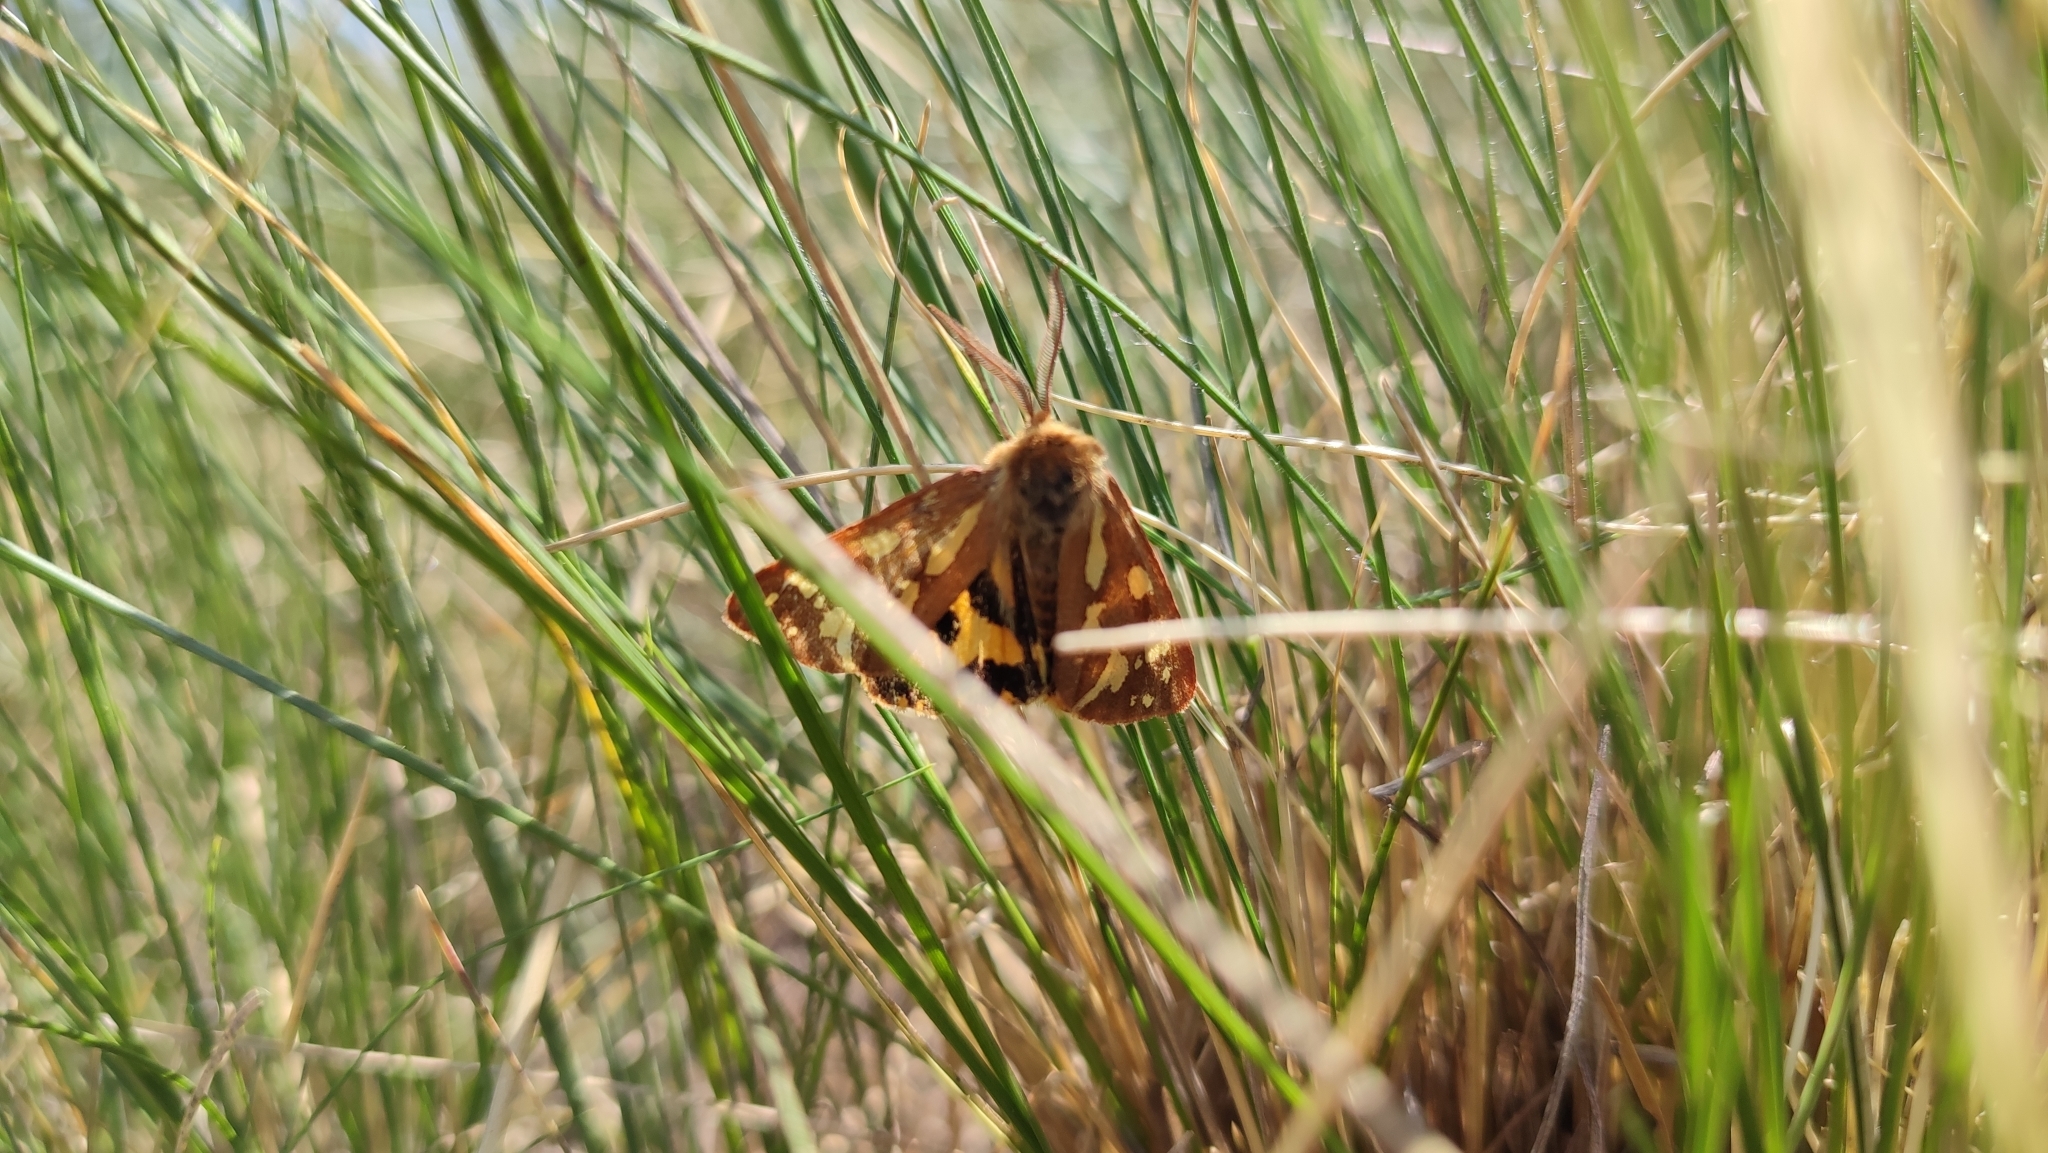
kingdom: Animalia
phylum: Arthropoda
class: Insecta
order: Lepidoptera
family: Erebidae
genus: Hyphoraia
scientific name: Hyphoraia aulica
